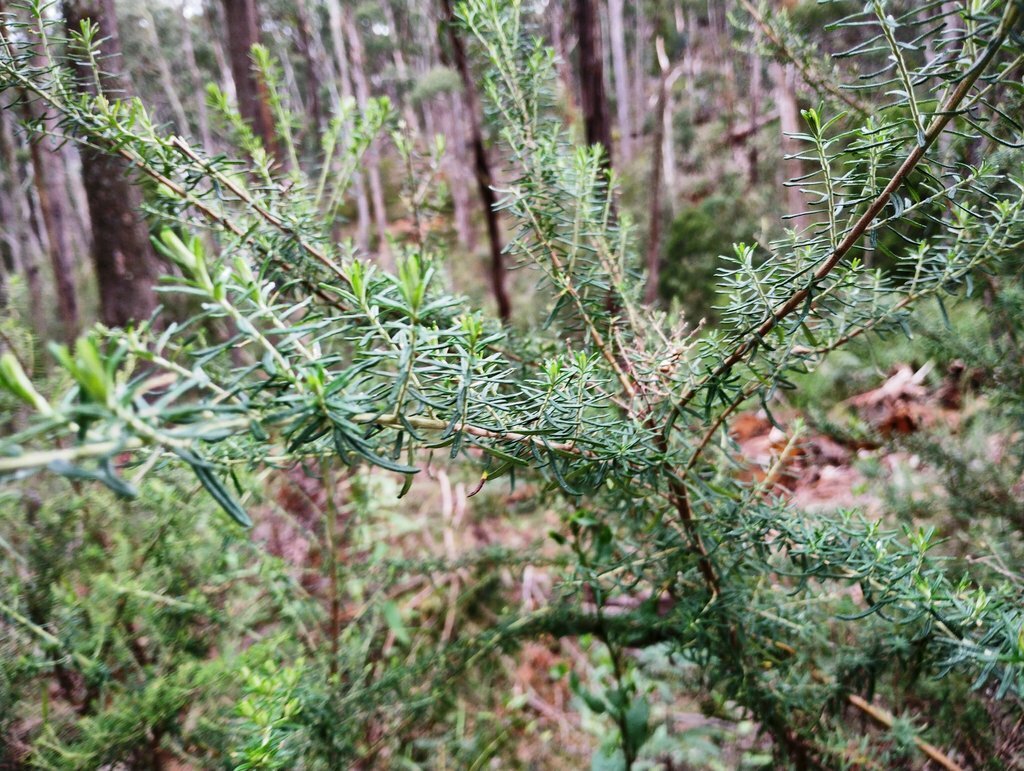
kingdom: Plantae
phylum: Tracheophyta
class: Magnoliopsida
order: Asterales
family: Asteraceae
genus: Cassinia
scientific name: Cassinia aculeata
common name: Australian tauhinu
